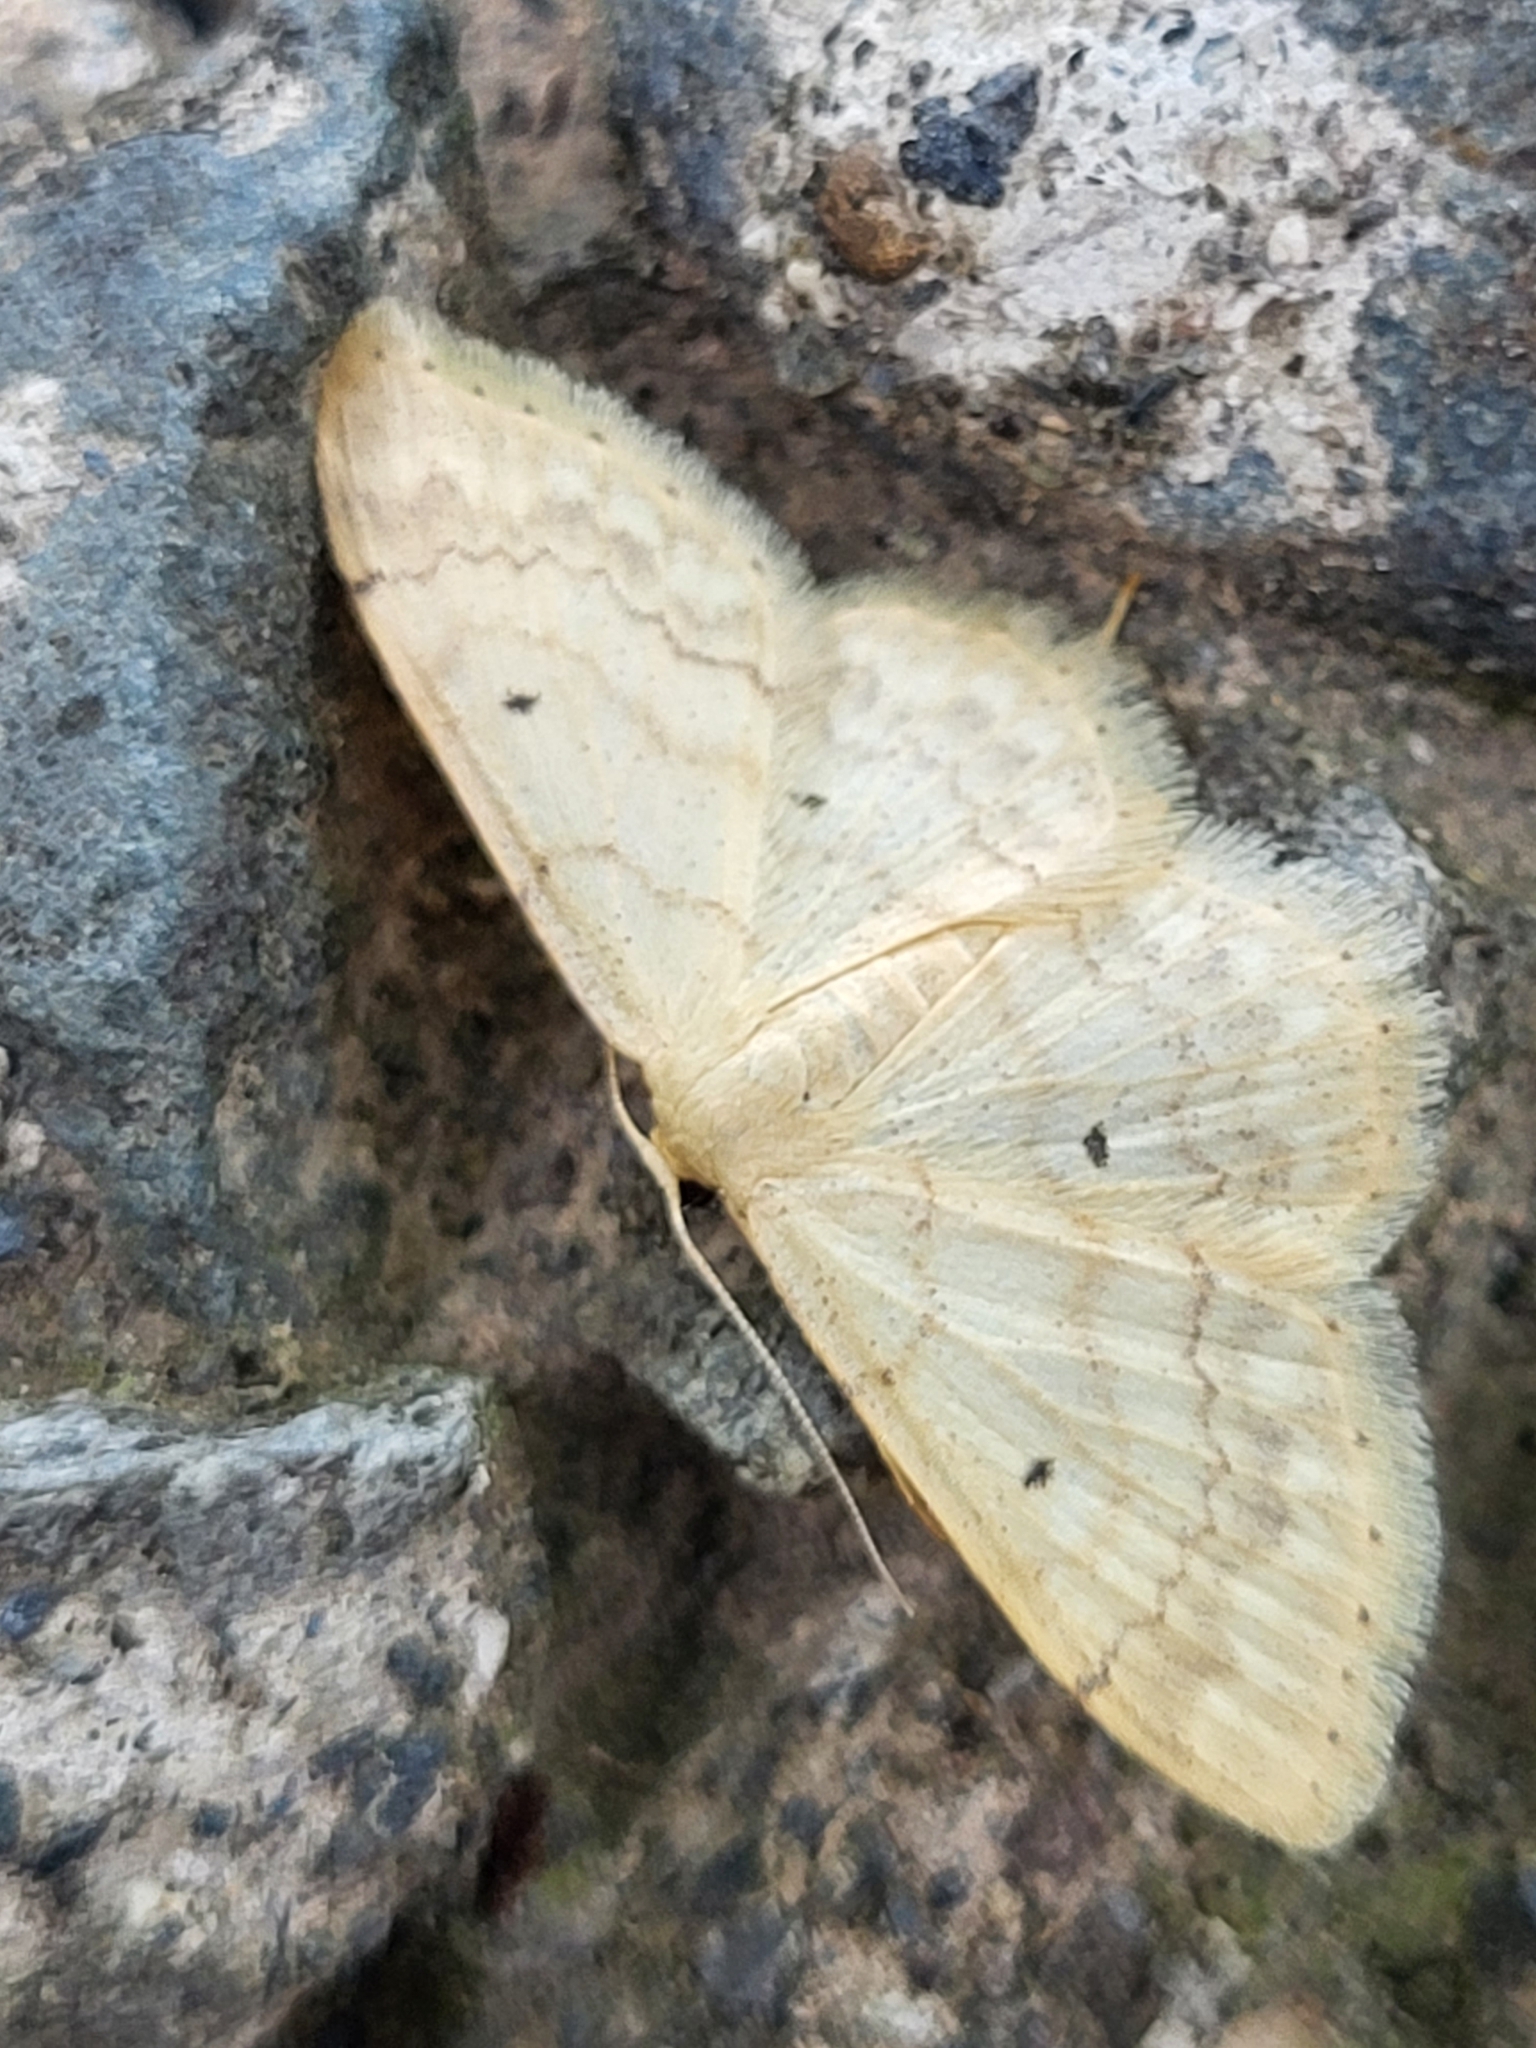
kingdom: Animalia
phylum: Arthropoda
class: Insecta
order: Lepidoptera
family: Geometridae
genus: Idaea
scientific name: Idaea biselata
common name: Small fan-footed wave
